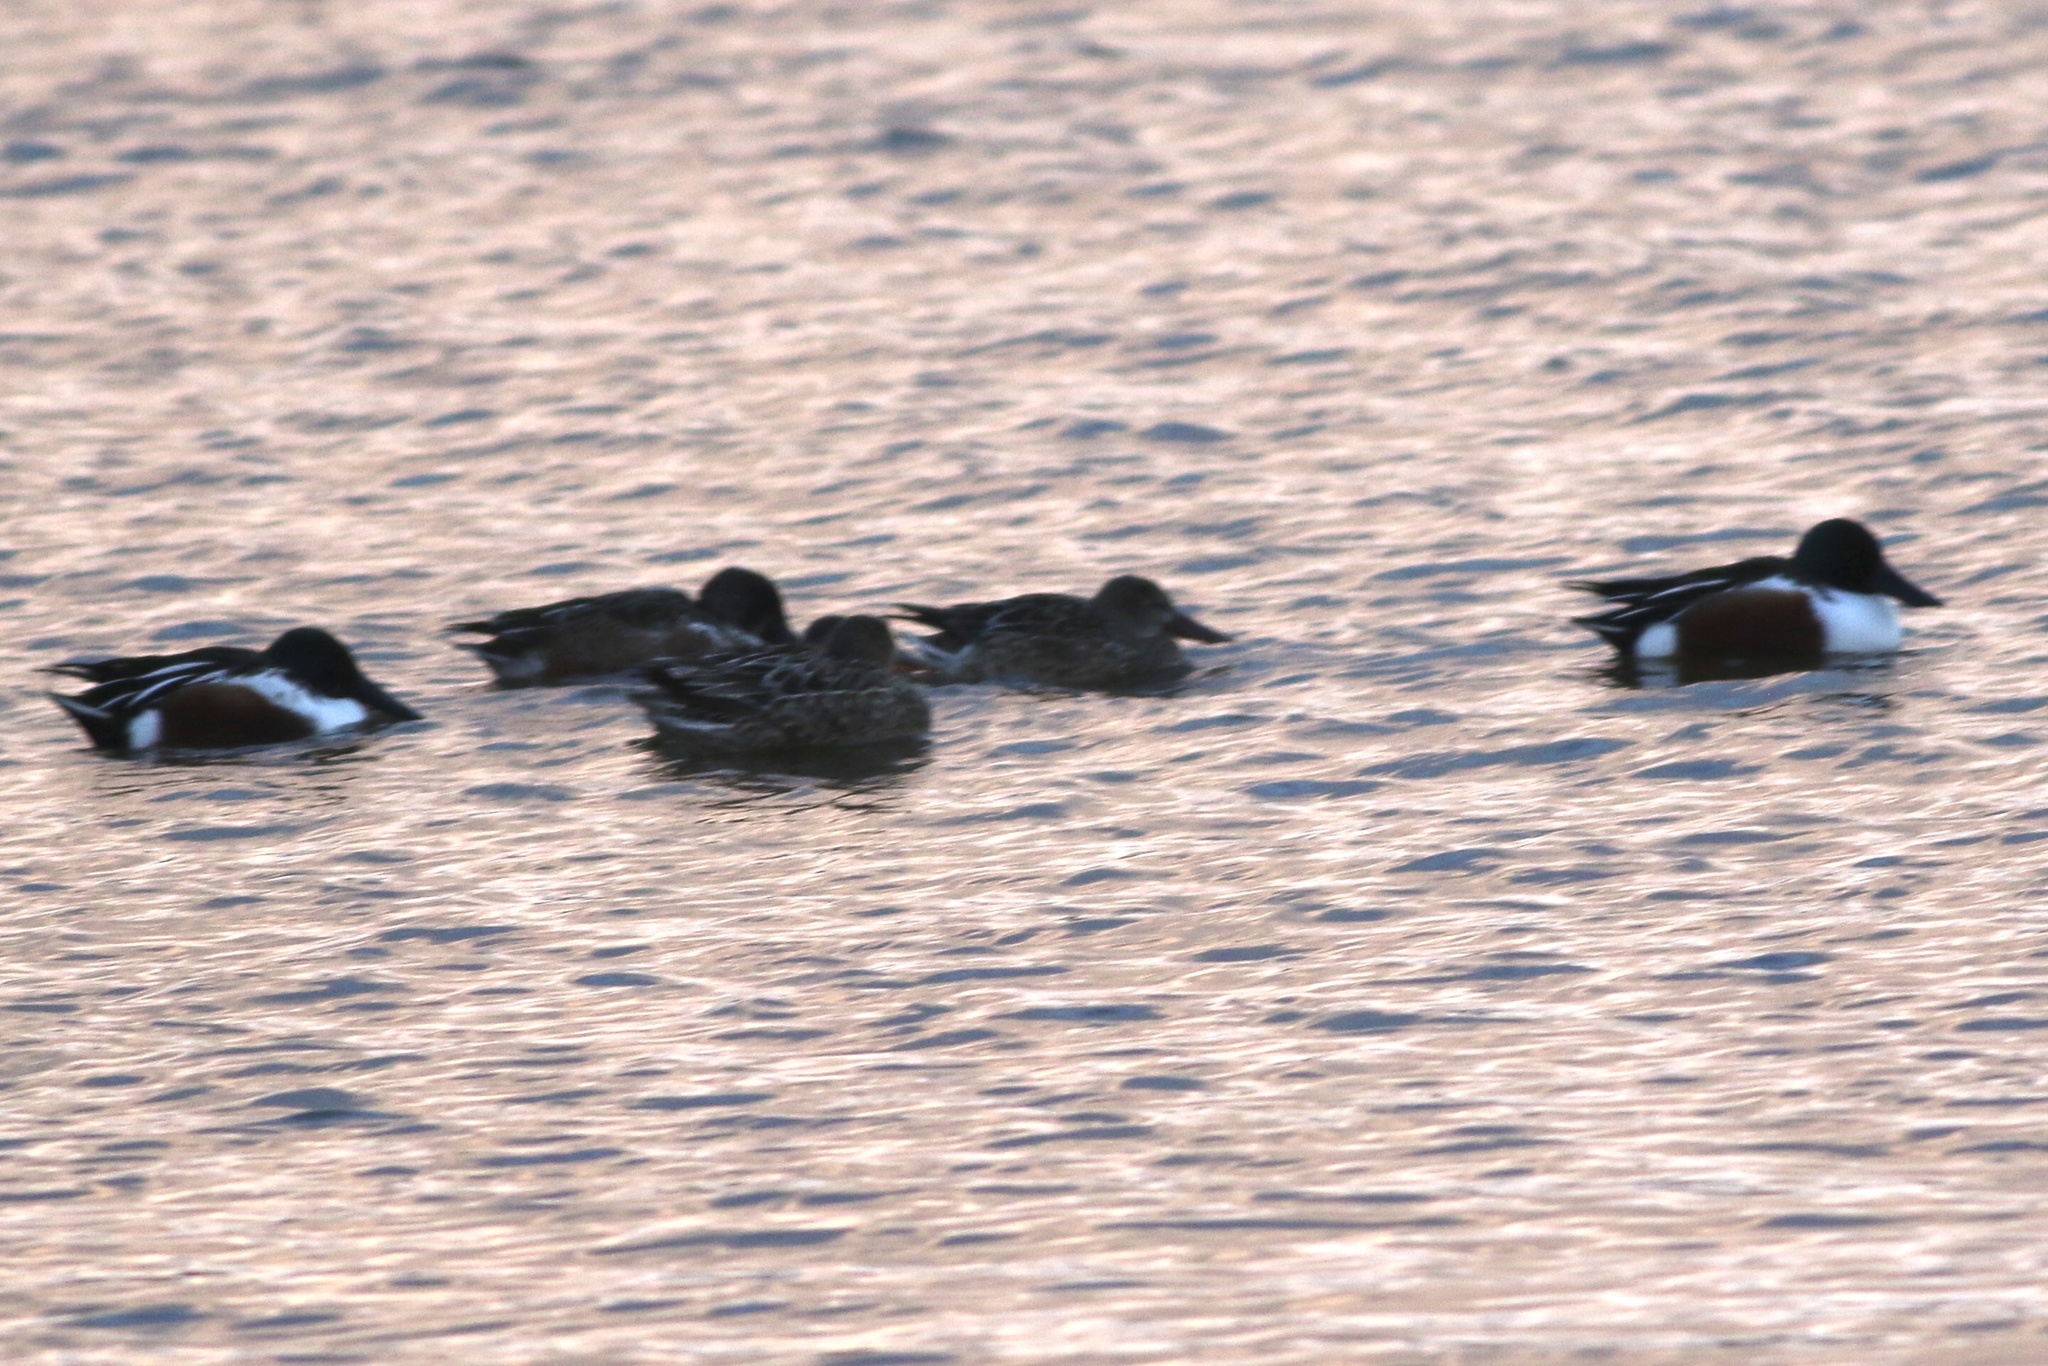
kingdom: Animalia
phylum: Chordata
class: Aves
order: Anseriformes
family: Anatidae
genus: Spatula
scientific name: Spatula clypeata
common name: Northern shoveler
